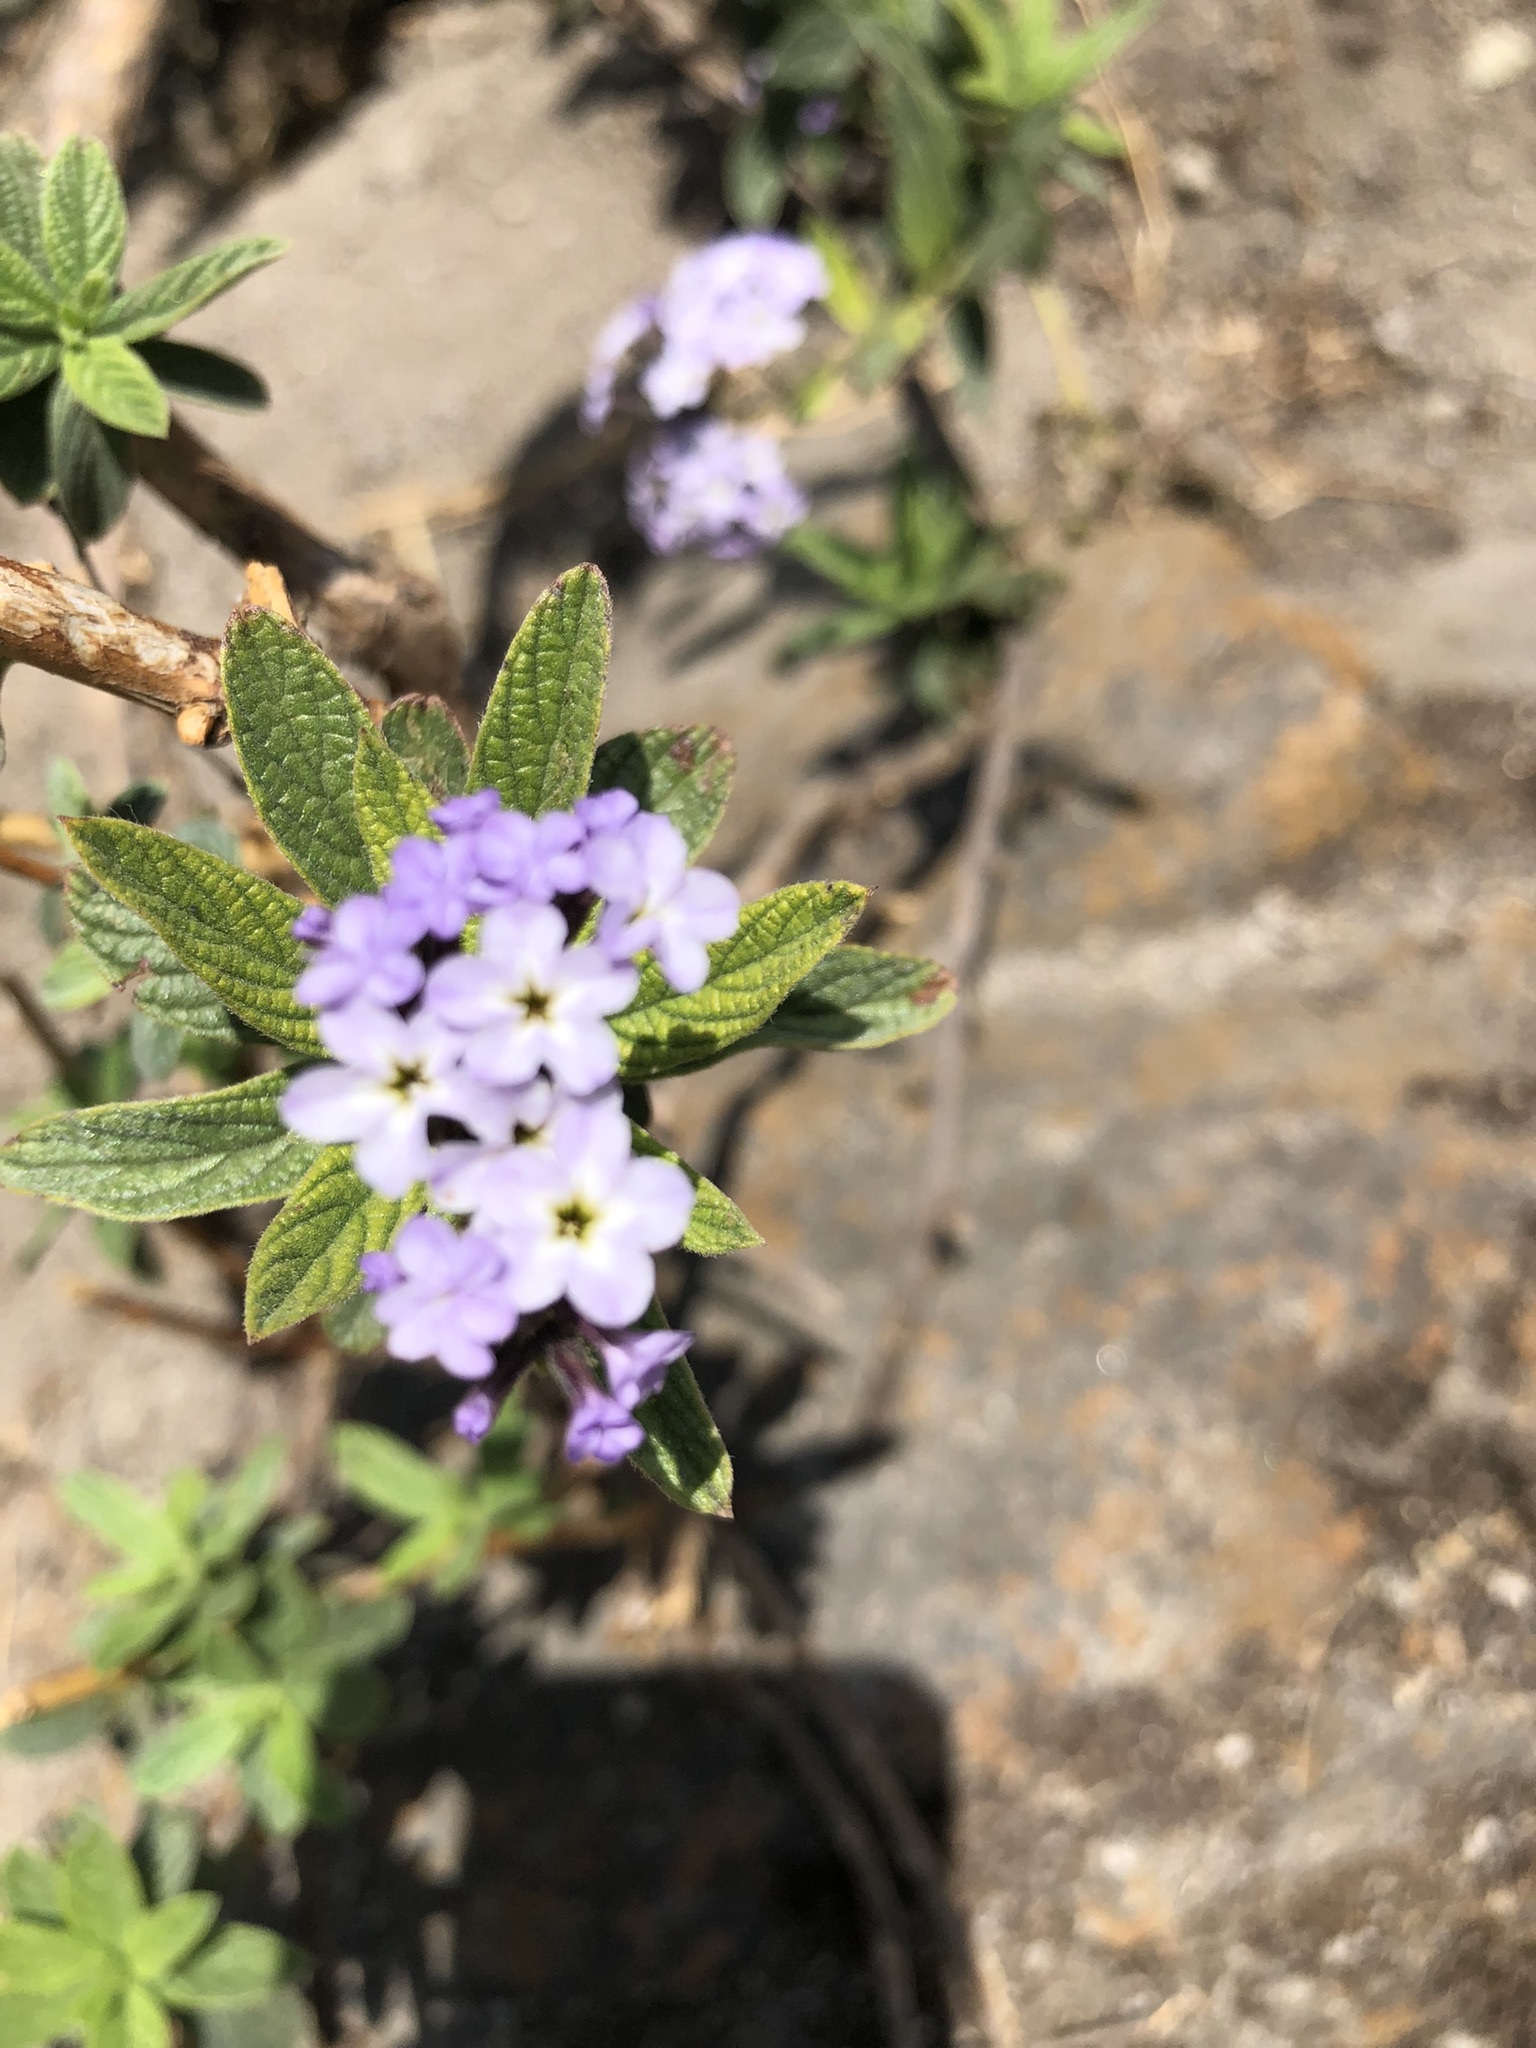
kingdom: Plantae
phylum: Tracheophyta
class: Magnoliopsida
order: Boraginales
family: Heliotropiaceae
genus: Heliotropium
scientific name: Heliotropium arborescens
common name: Cherry-pie
